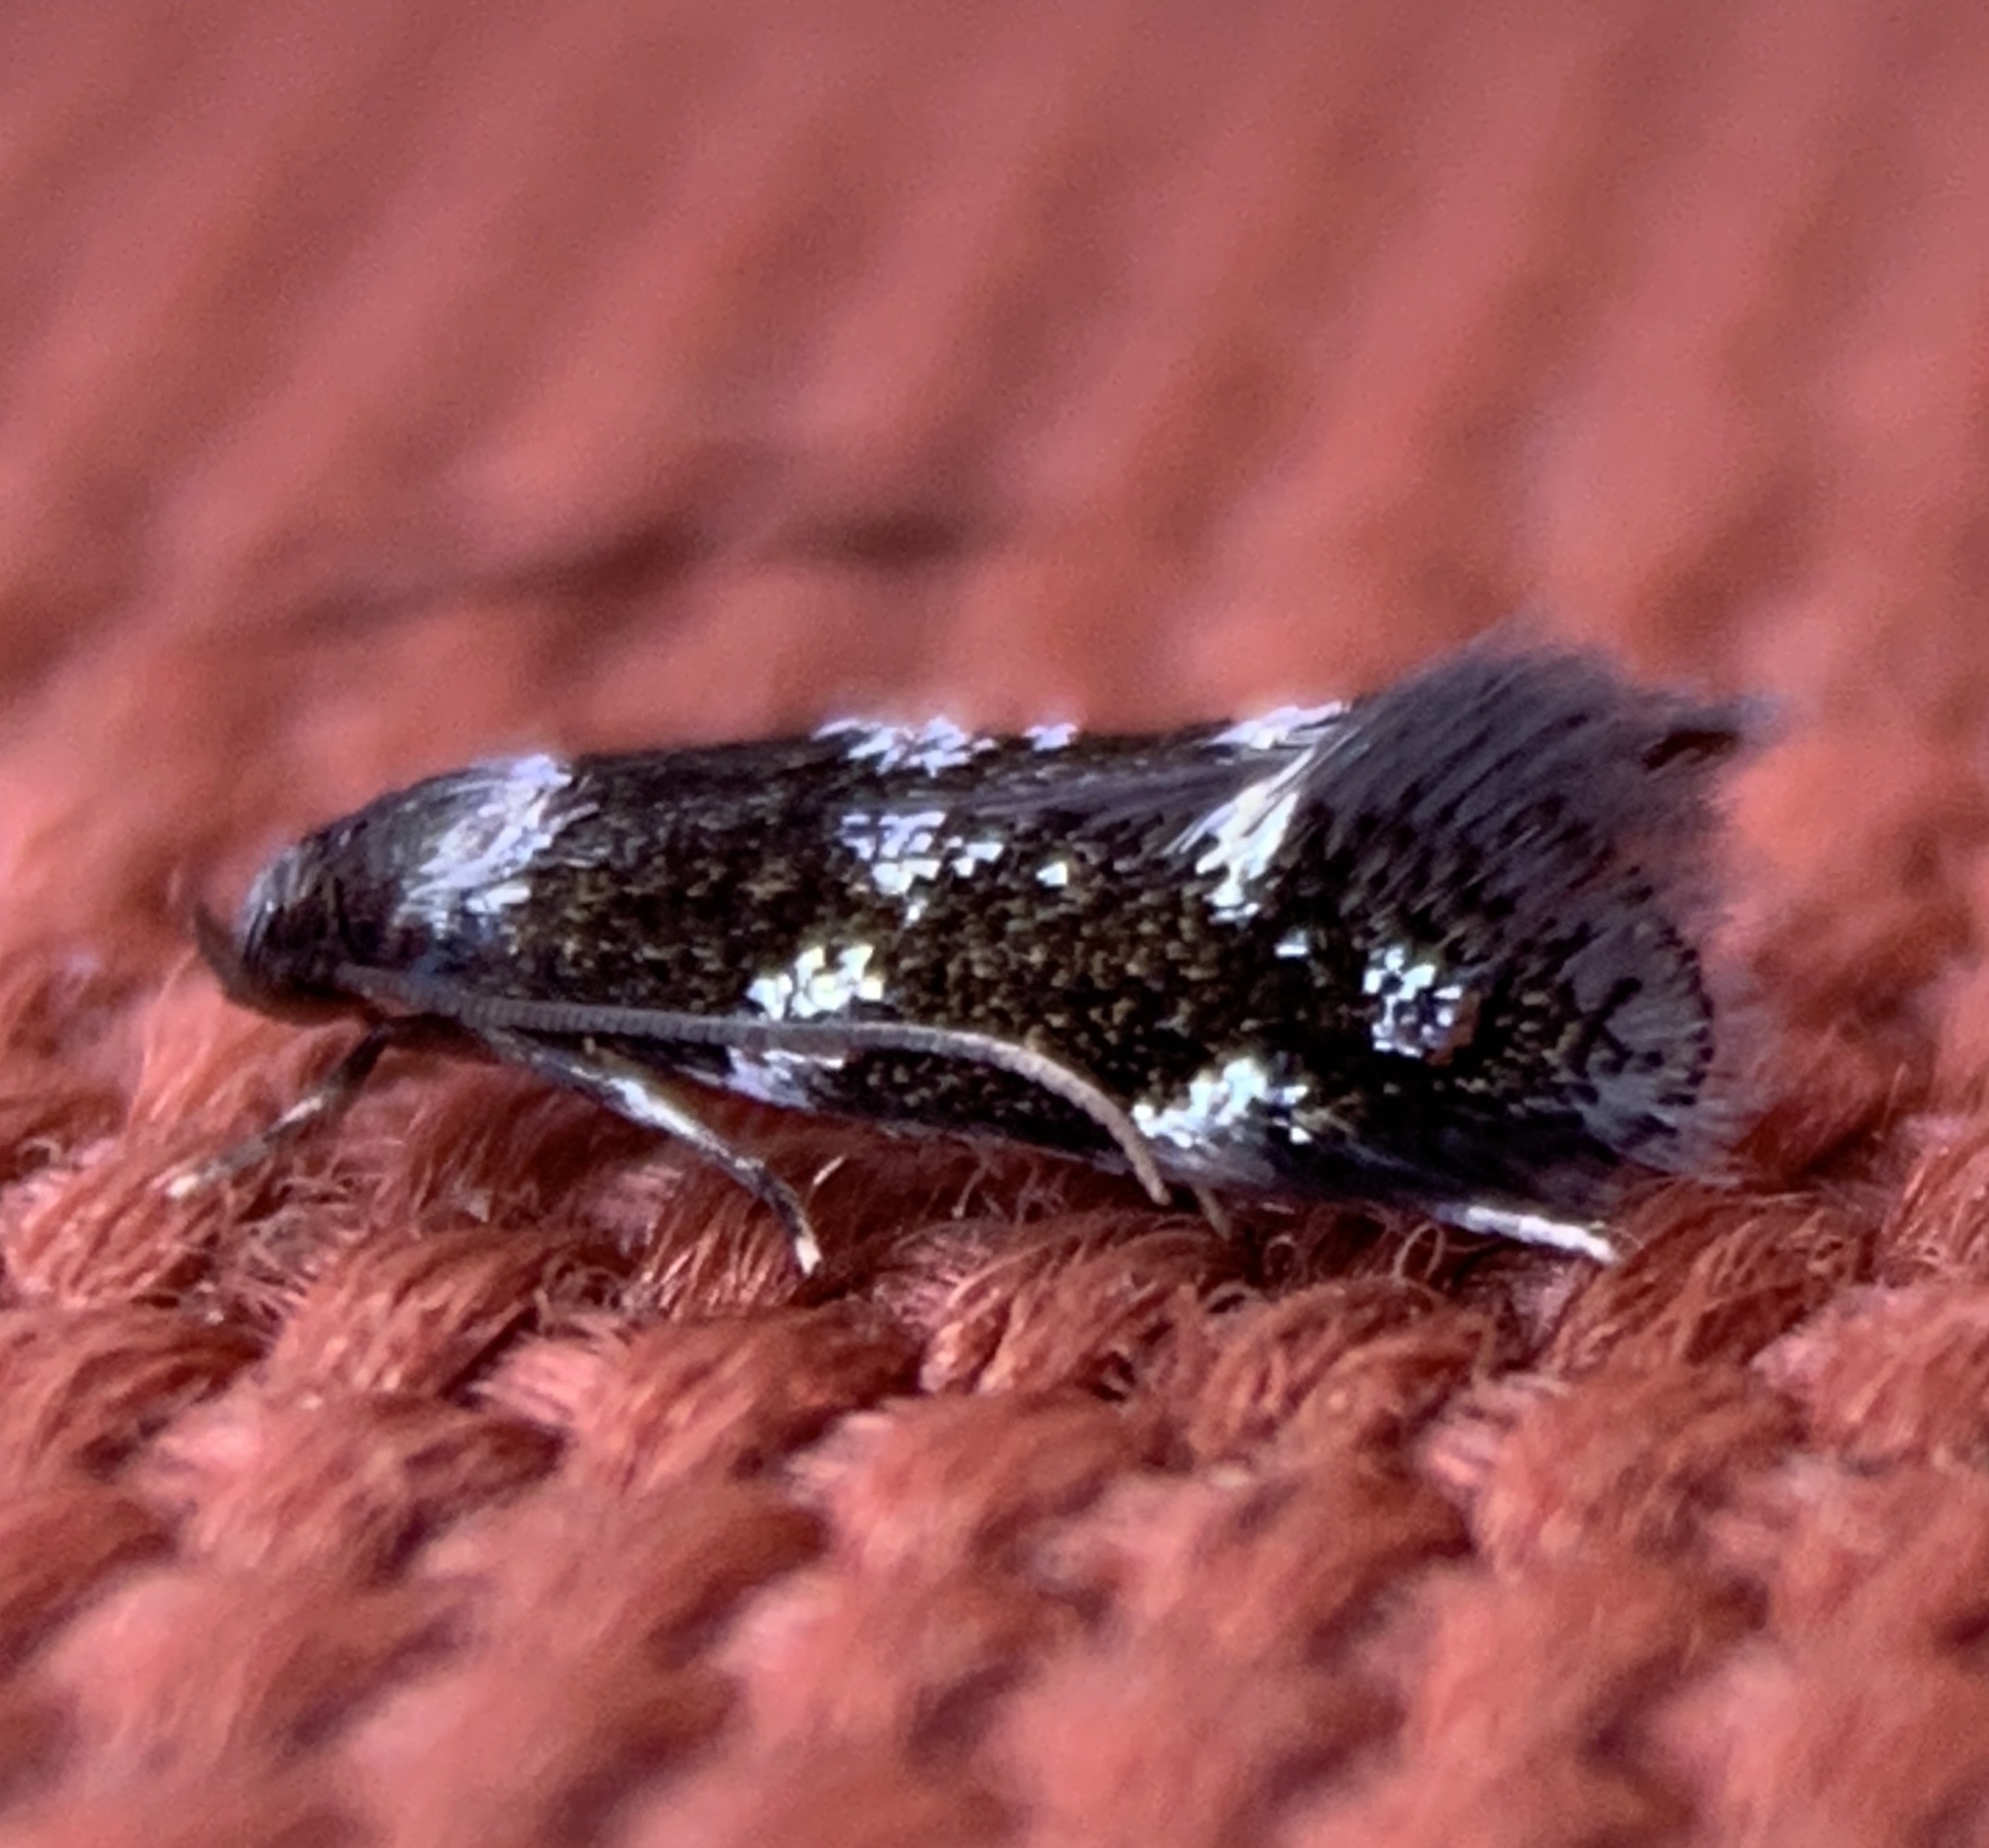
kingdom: Animalia
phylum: Arthropoda
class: Insecta
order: Lepidoptera
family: Elachistidae
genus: Elachista
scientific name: Elachista madarella
